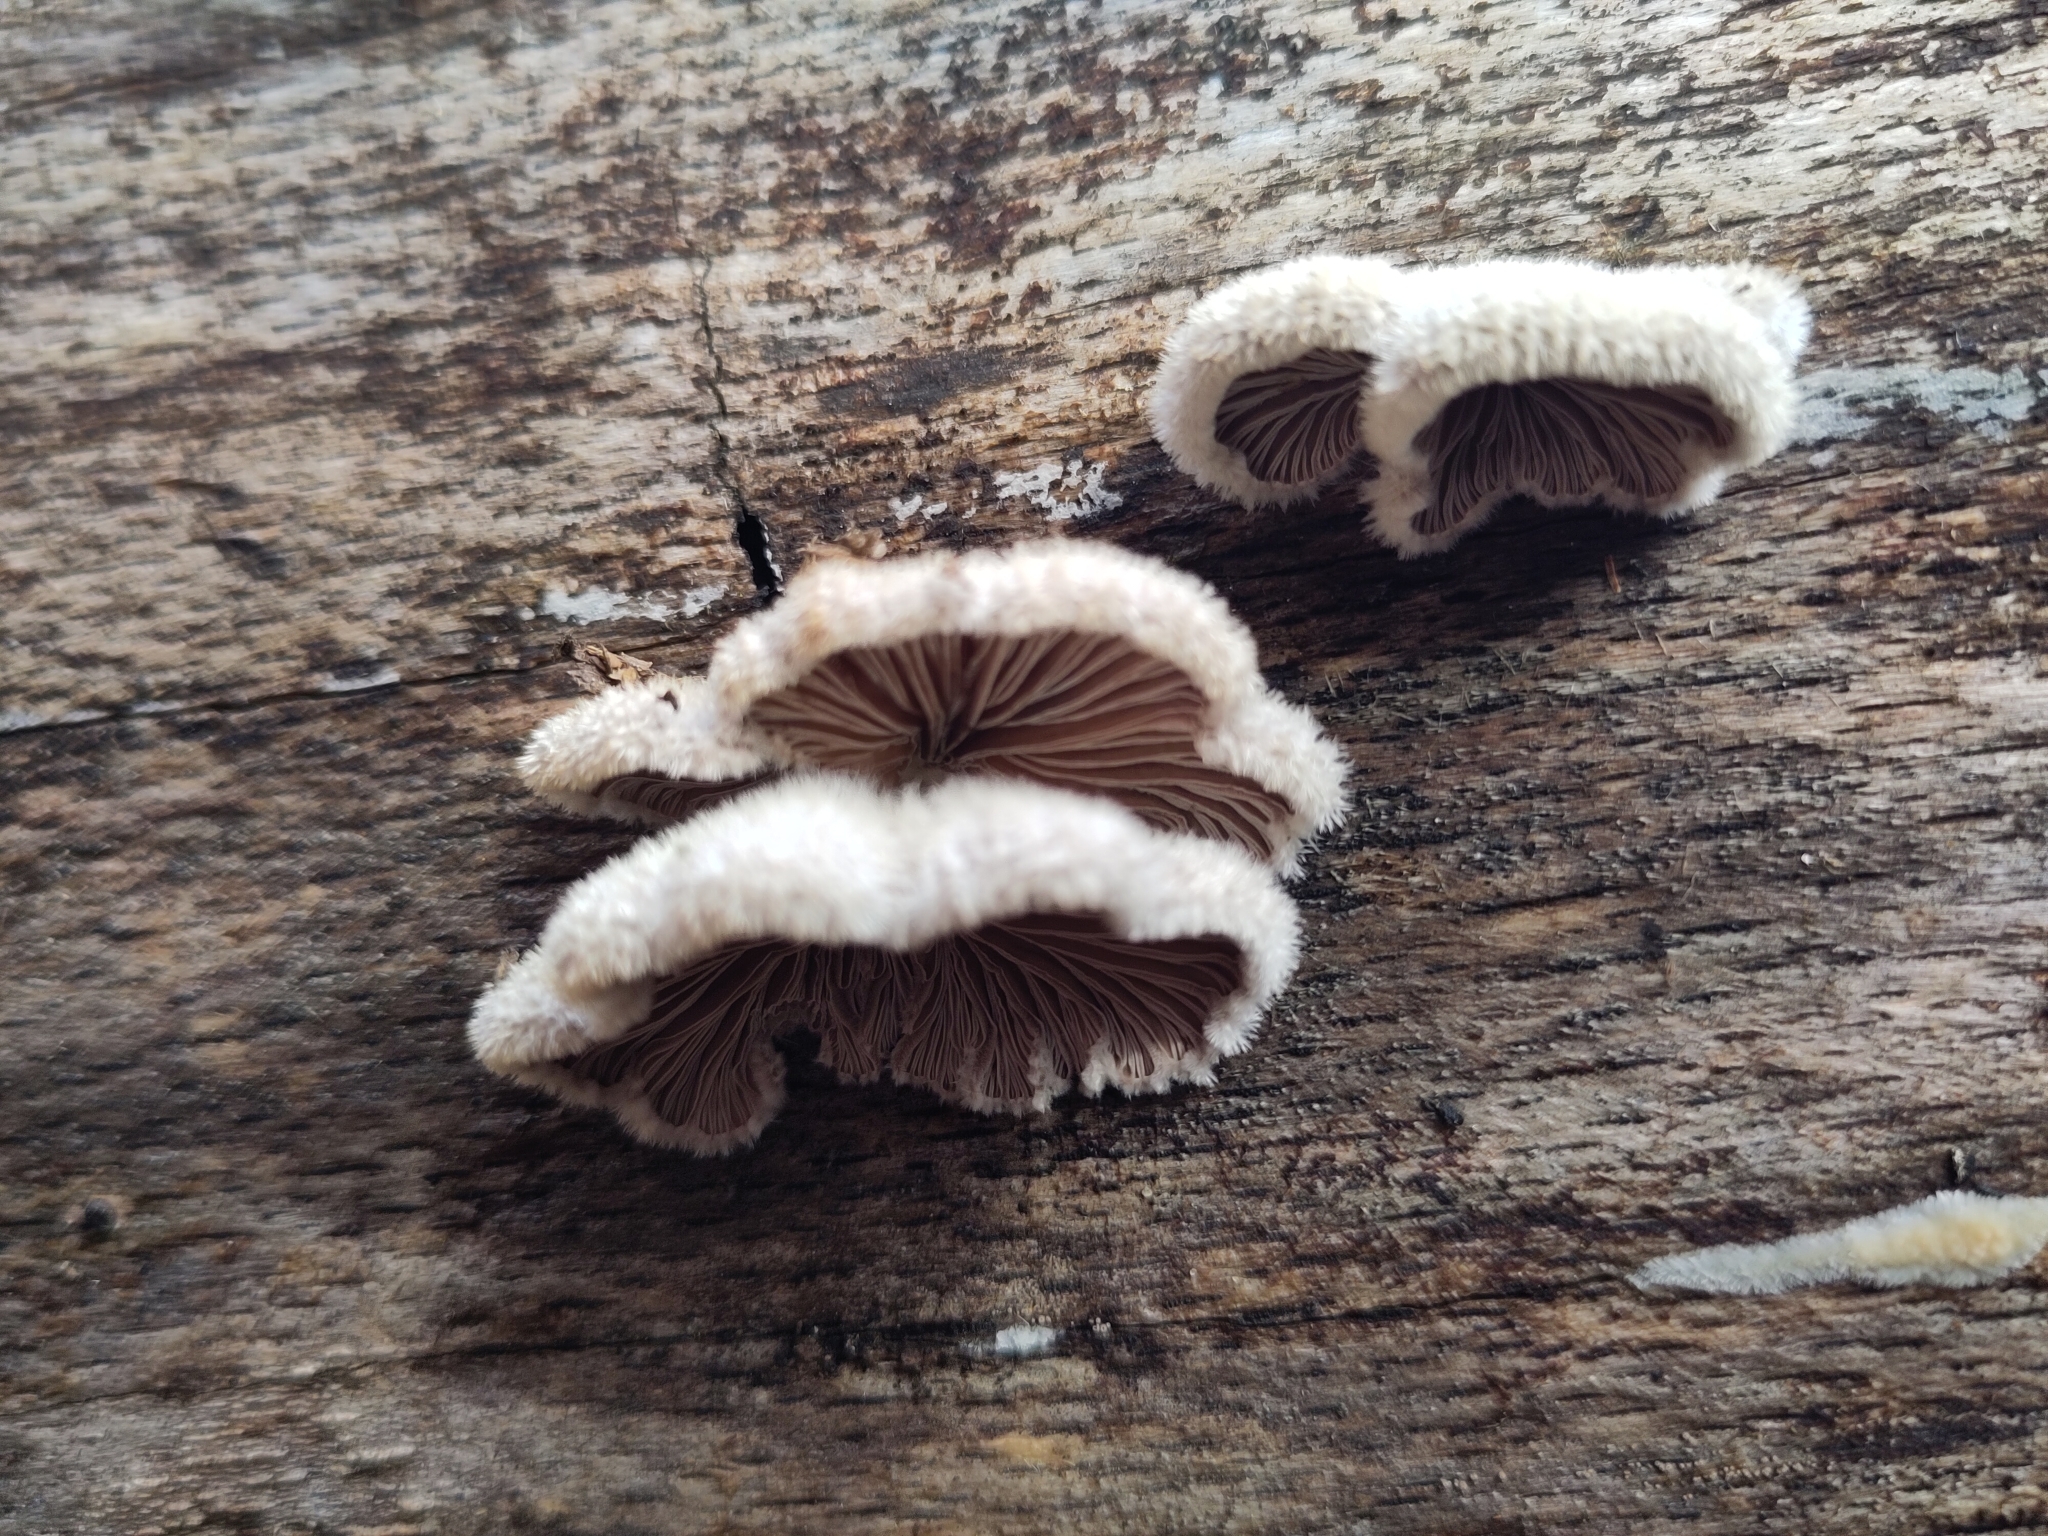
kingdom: Fungi
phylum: Basidiomycota
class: Agaricomycetes
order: Agaricales
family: Schizophyllaceae
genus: Schizophyllum
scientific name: Schizophyllum commune
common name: Common porecrust
